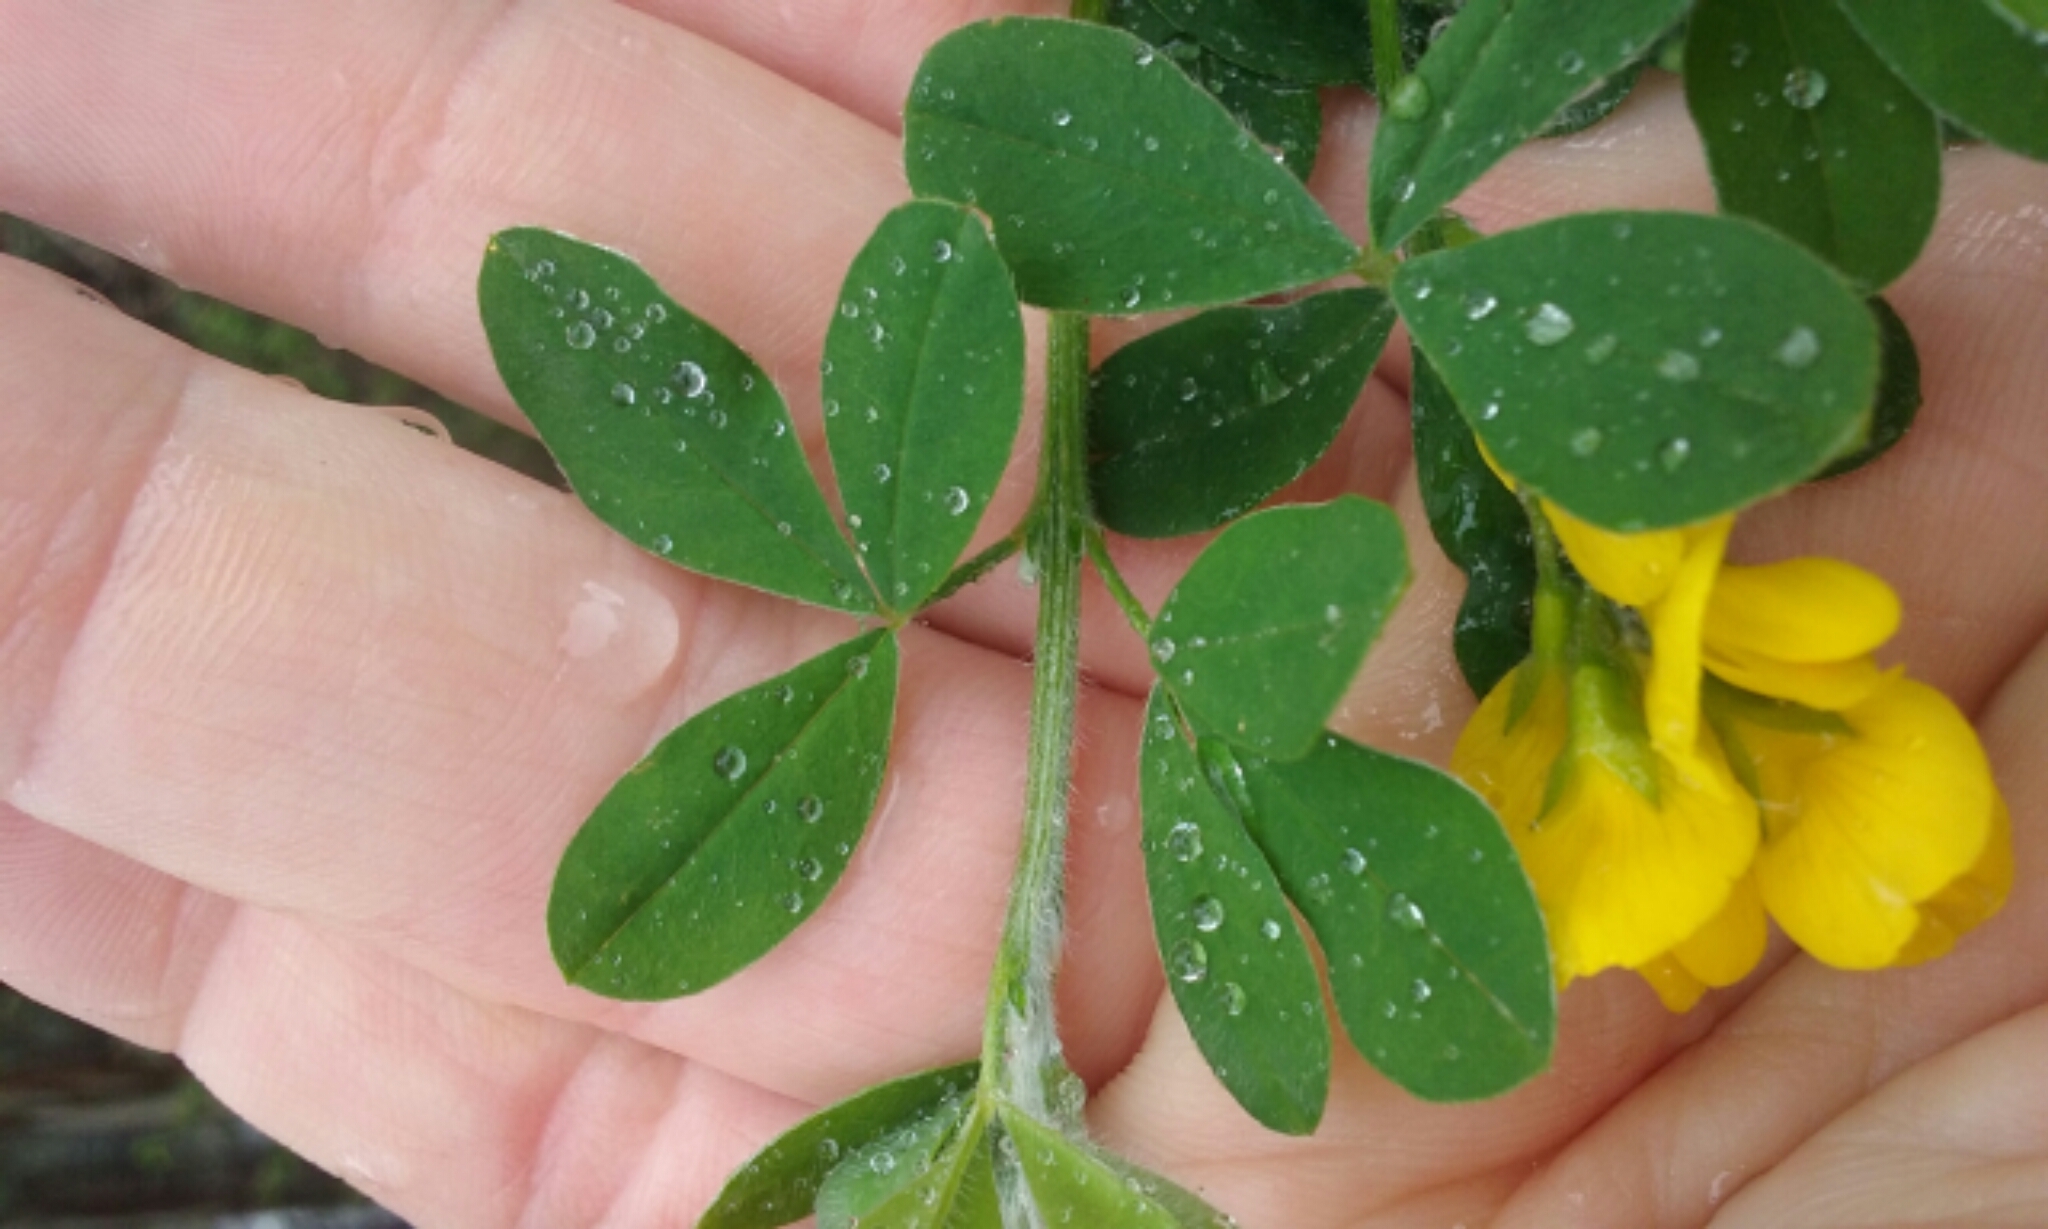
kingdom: Plantae
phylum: Tracheophyta
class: Magnoliopsida
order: Fabales
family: Fabaceae
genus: Genista
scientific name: Genista monspessulana
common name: Montpellier broom
